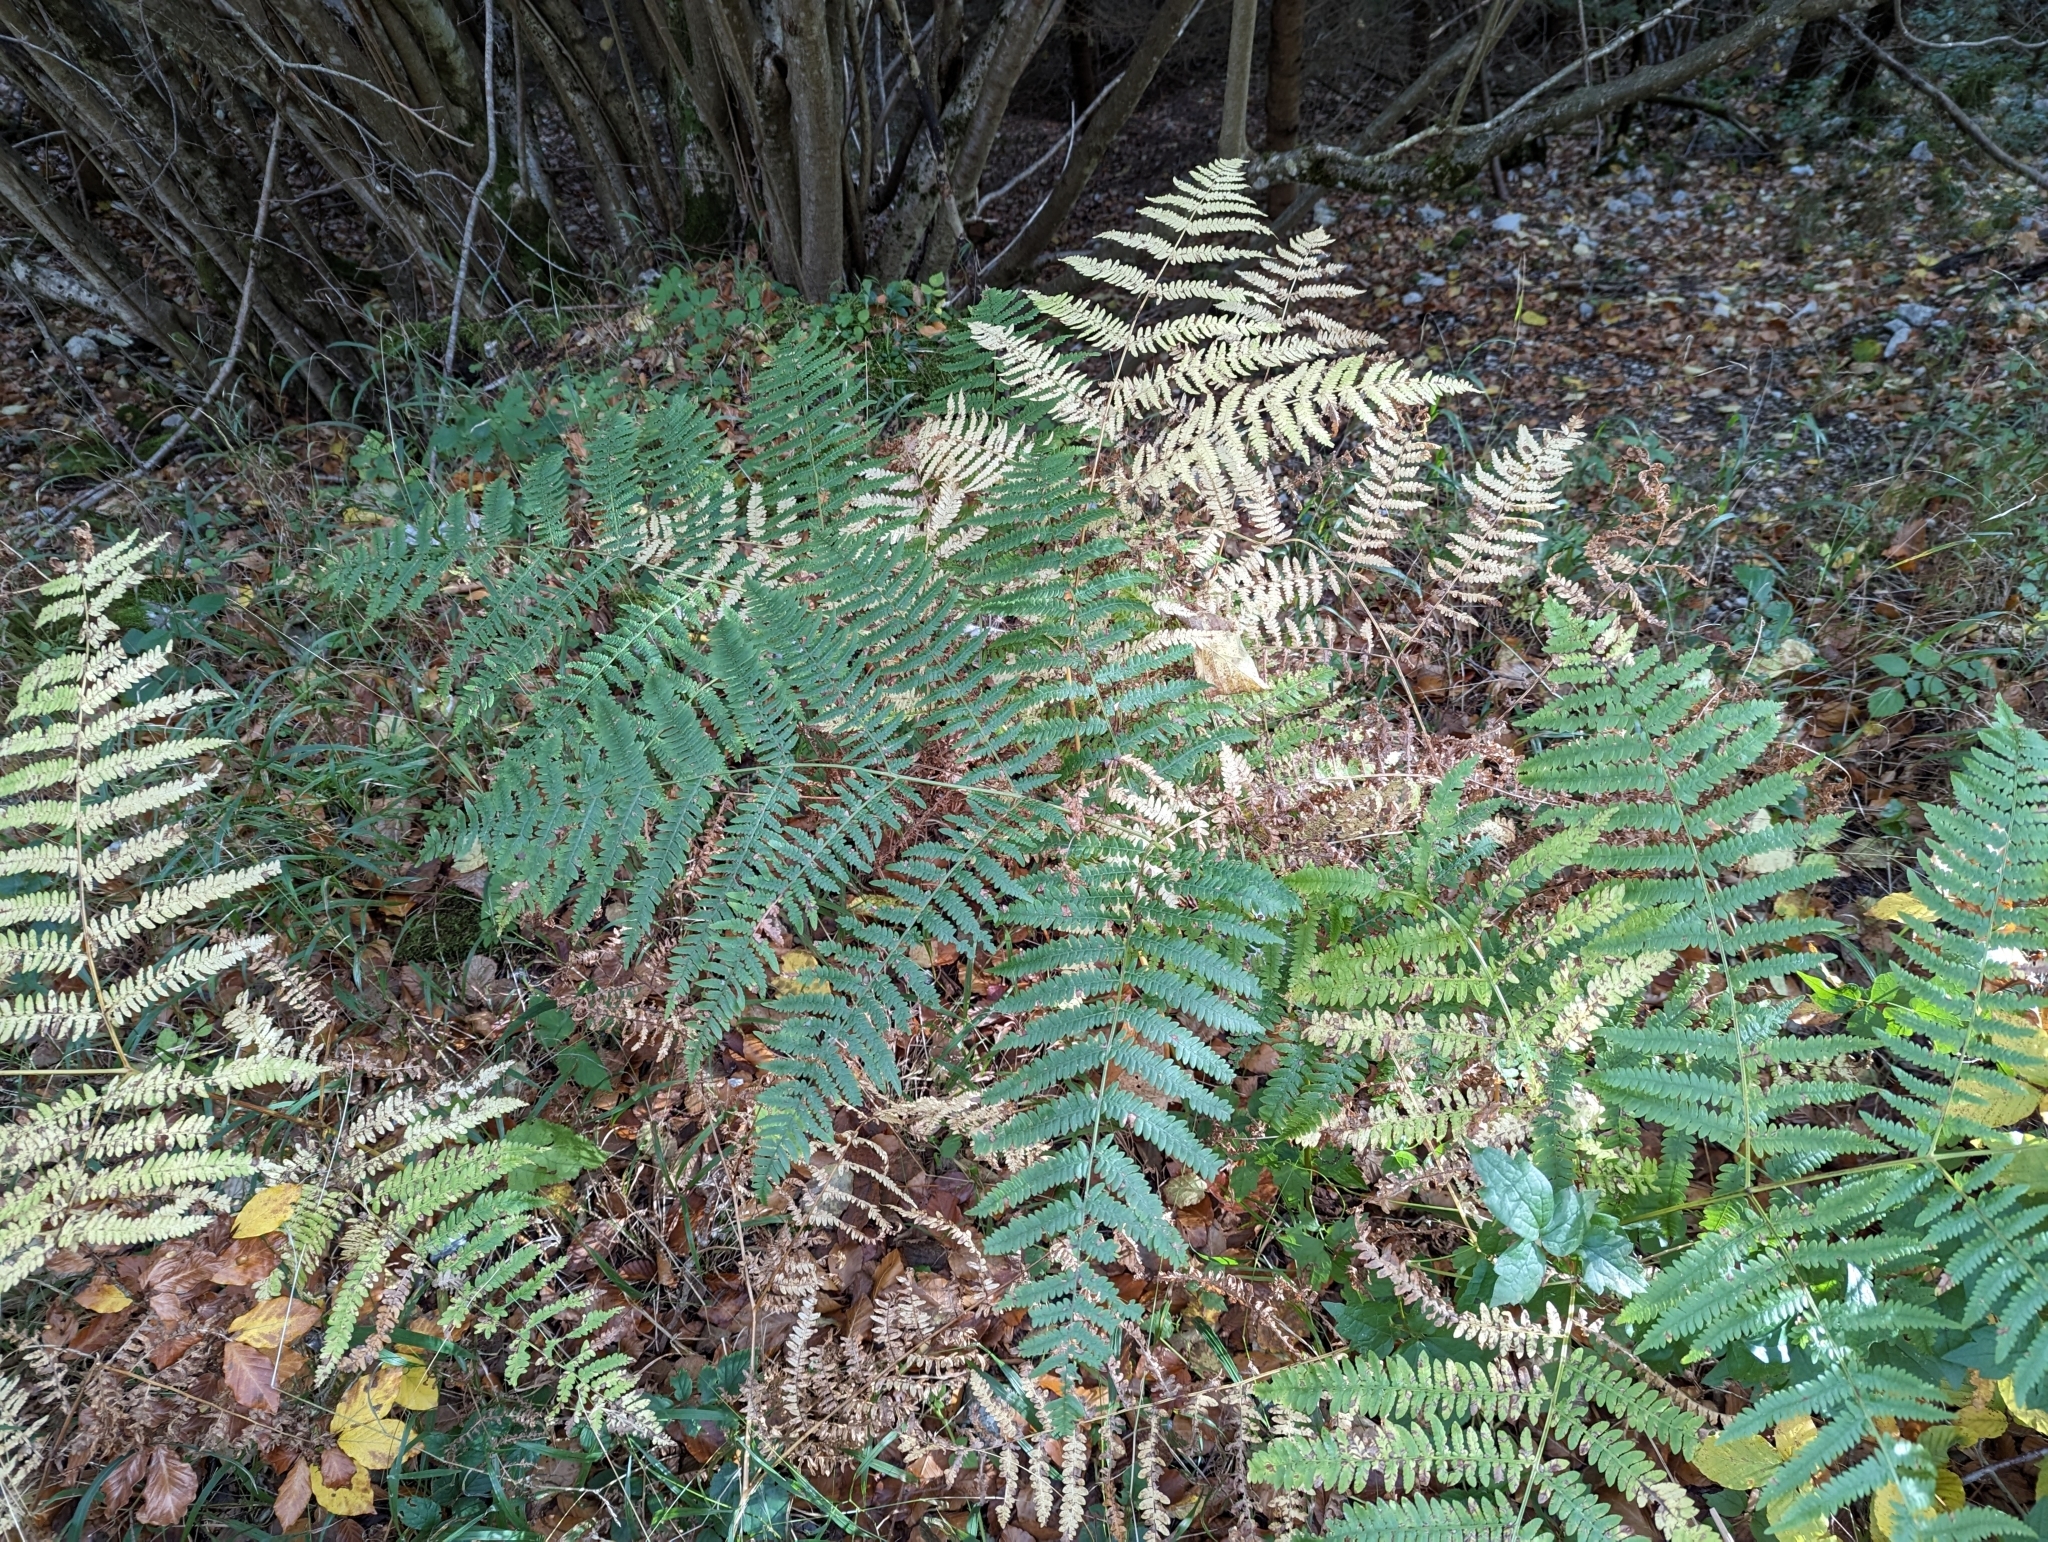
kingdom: Plantae
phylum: Tracheophyta
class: Polypodiopsida
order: Polypodiales
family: Dennstaedtiaceae
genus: Pteridium
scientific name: Pteridium aquilinum
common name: Bracken
